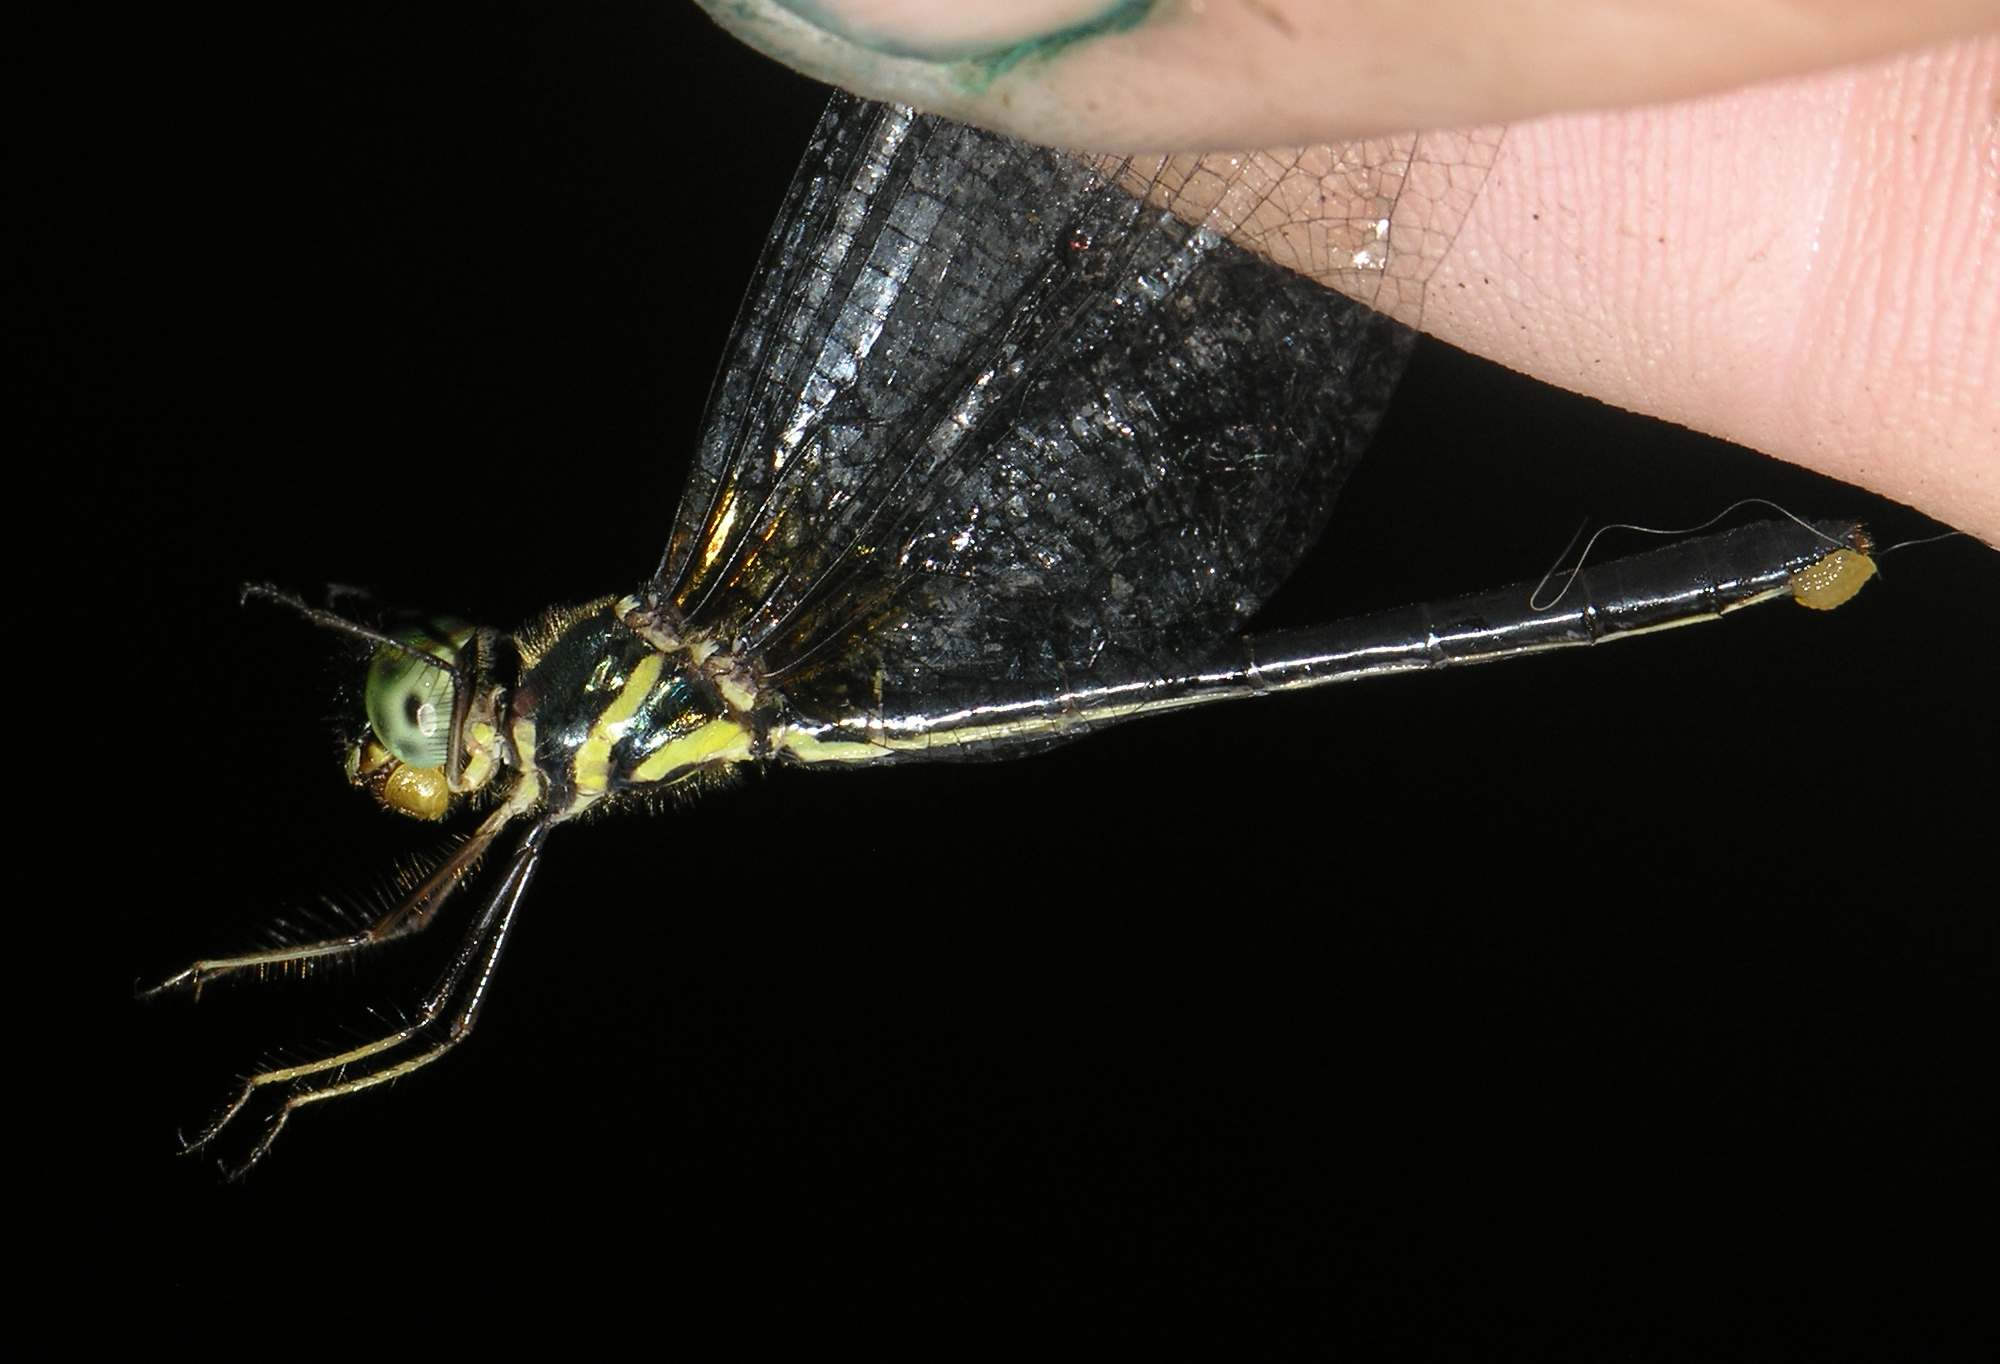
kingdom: Animalia
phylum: Arthropoda
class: Insecta
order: Odonata
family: Synthemistidae
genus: Idionyx
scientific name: Idionyx thailandicus
